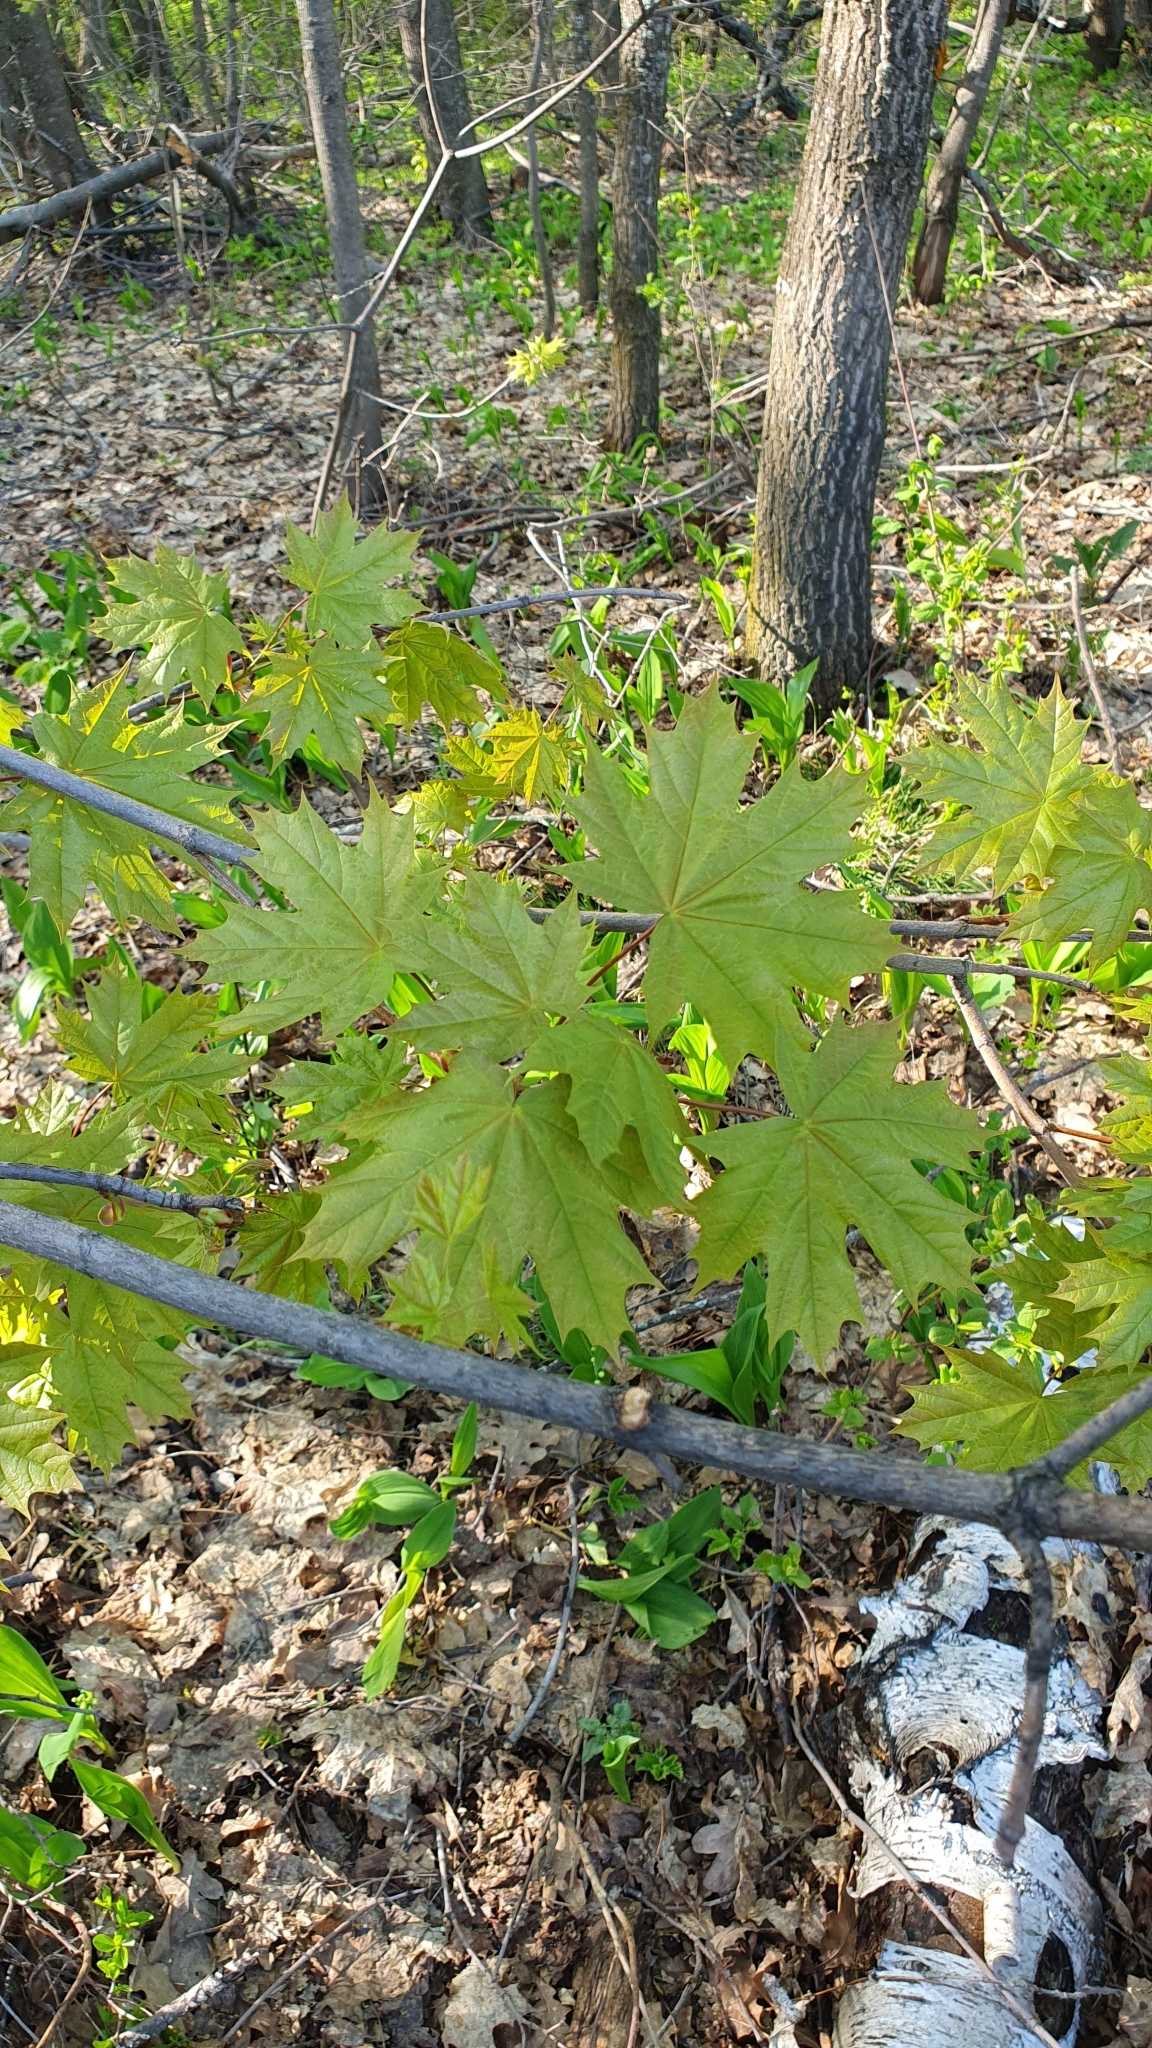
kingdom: Plantae
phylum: Tracheophyta
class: Magnoliopsida
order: Sapindales
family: Sapindaceae
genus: Acer
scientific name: Acer platanoides
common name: Norway maple
